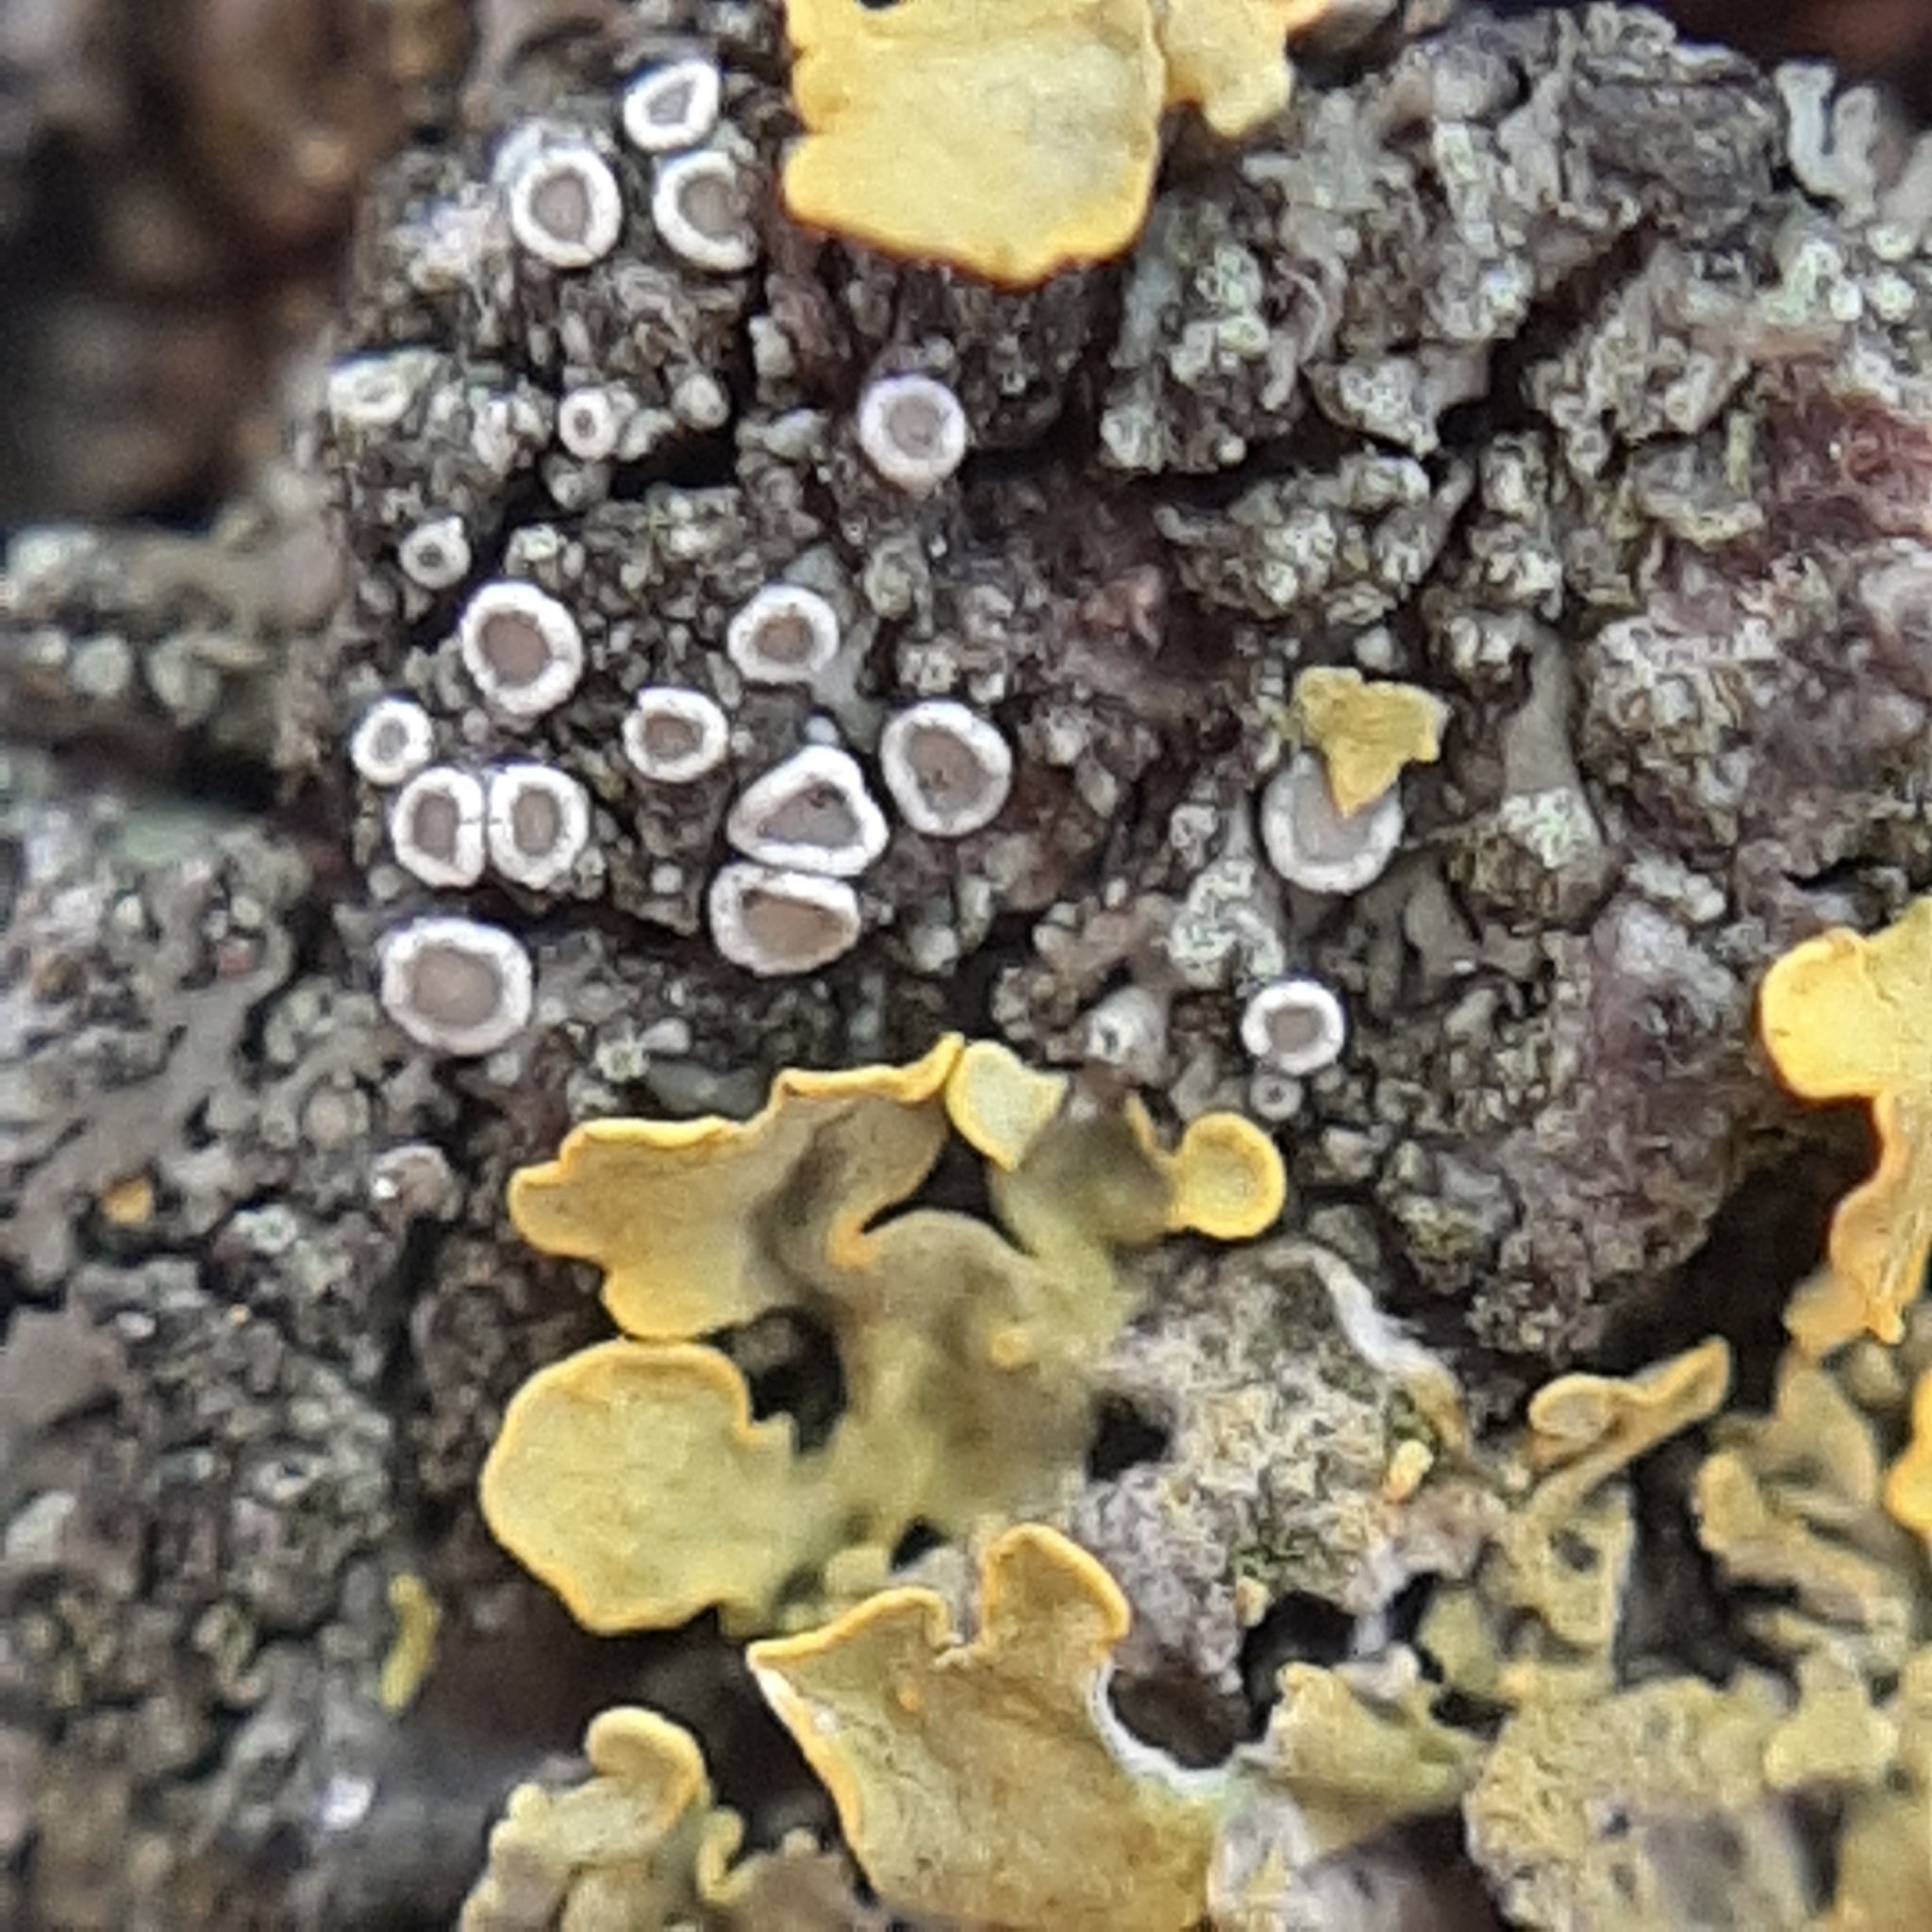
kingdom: Fungi
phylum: Ascomycota
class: Lecanoromycetes
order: Lecanorales
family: Lecanoraceae
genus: Polyozosia
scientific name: Polyozosia dispersa
